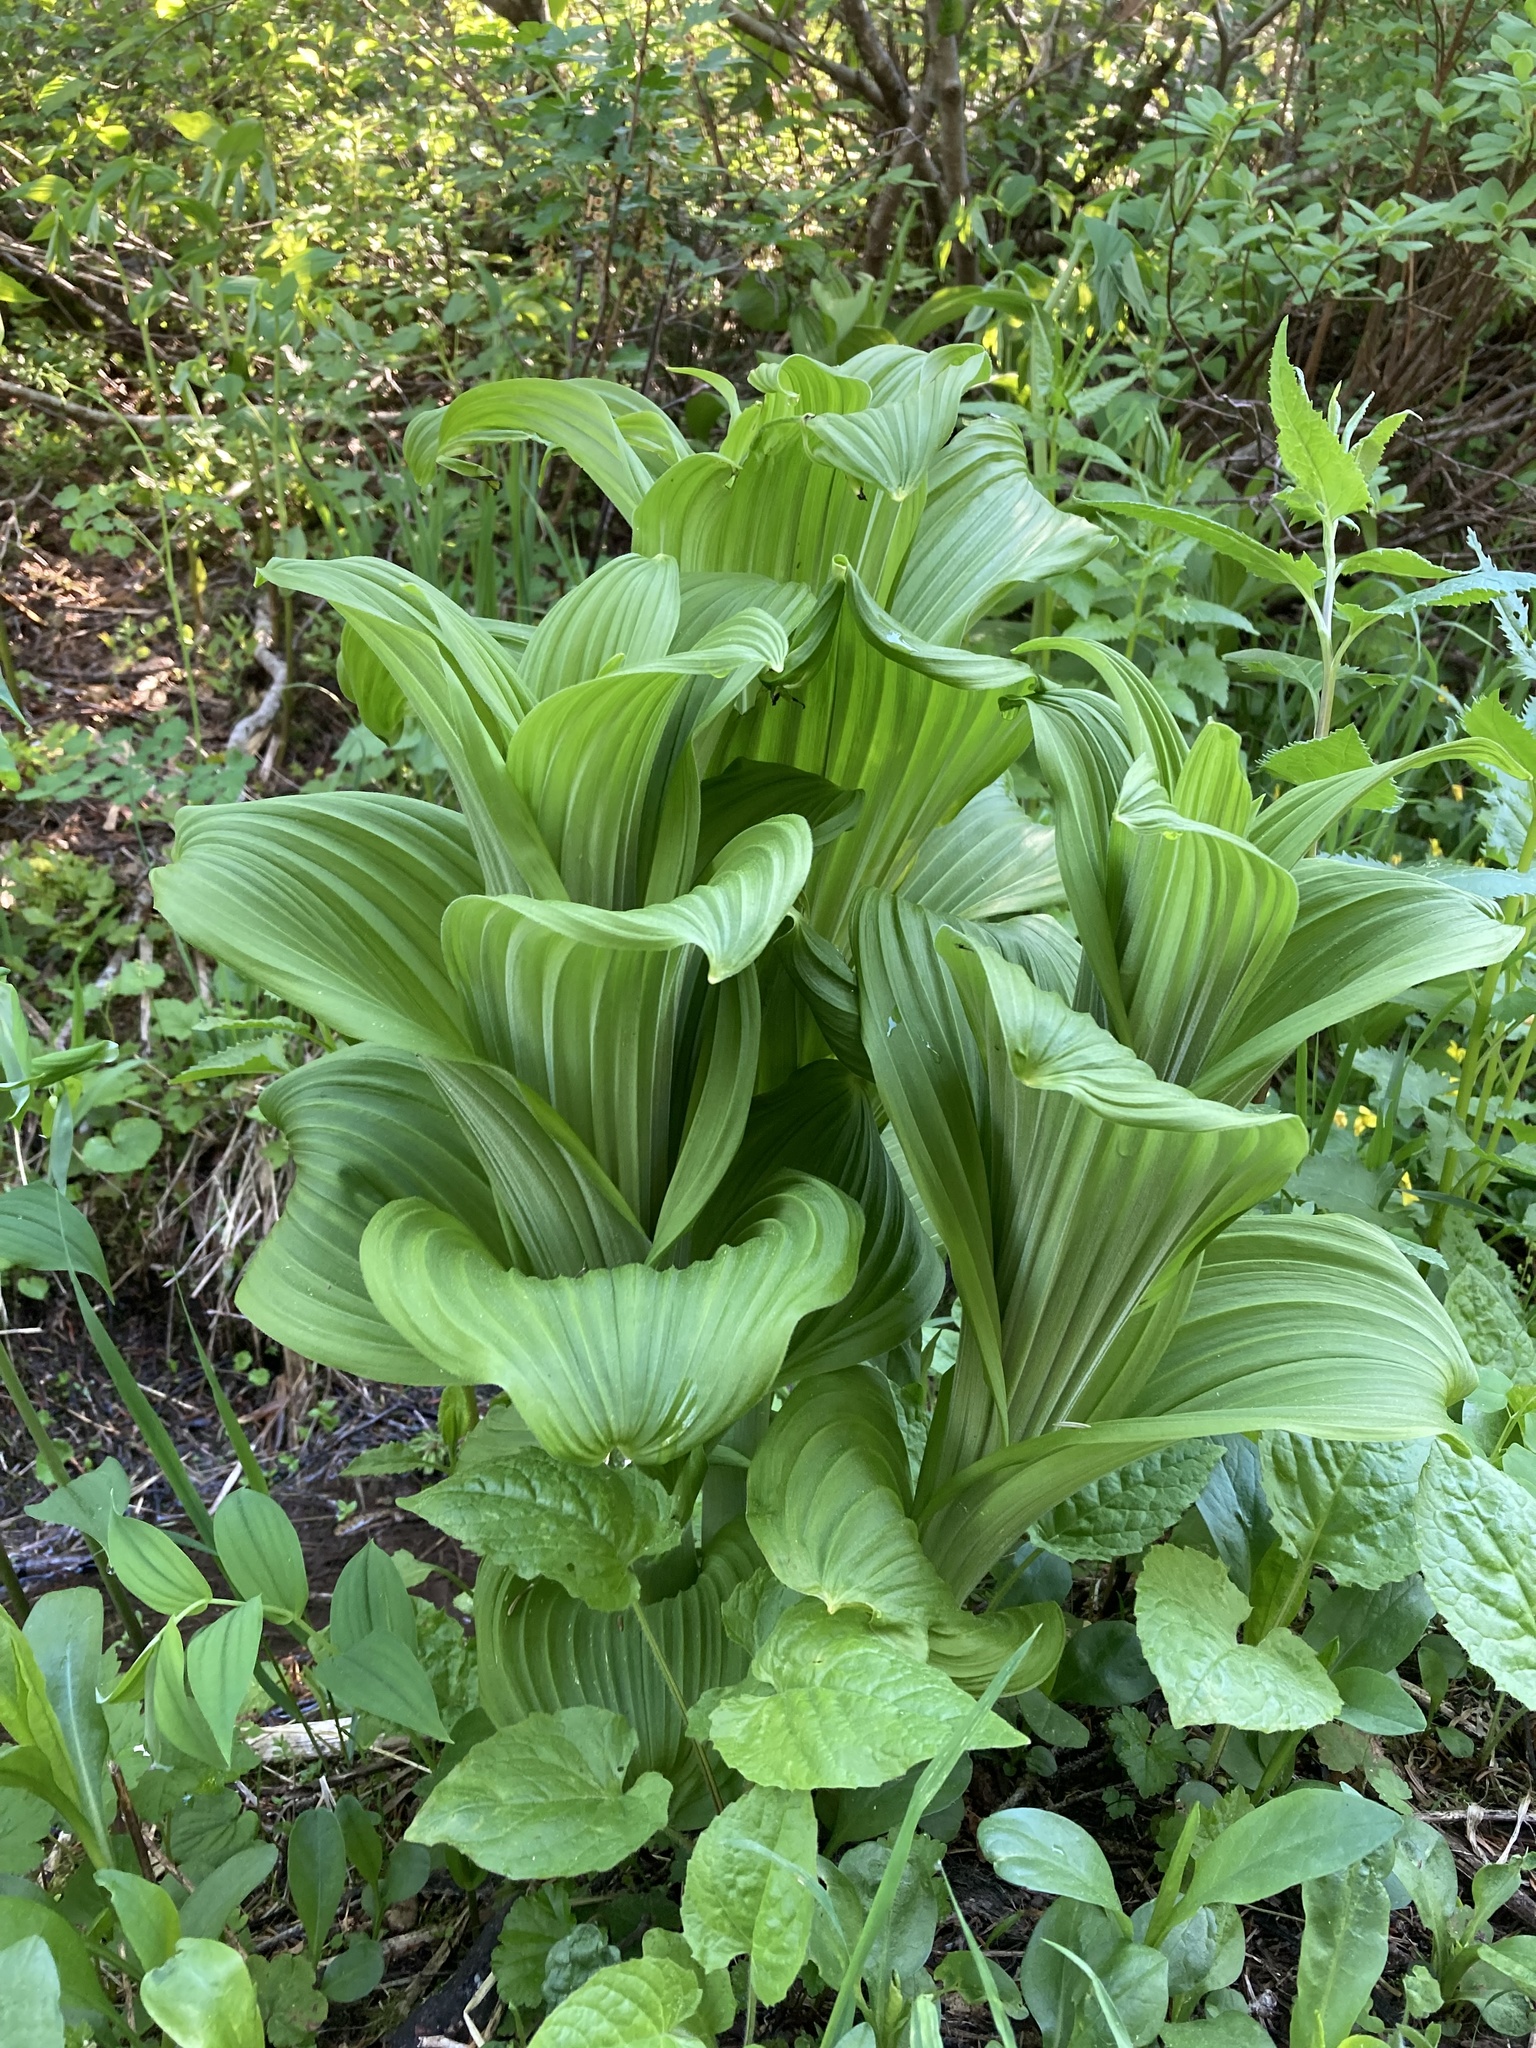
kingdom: Plantae
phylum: Tracheophyta
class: Liliopsida
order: Liliales
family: Melanthiaceae
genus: Veratrum
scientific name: Veratrum viride
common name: American false hellebore
